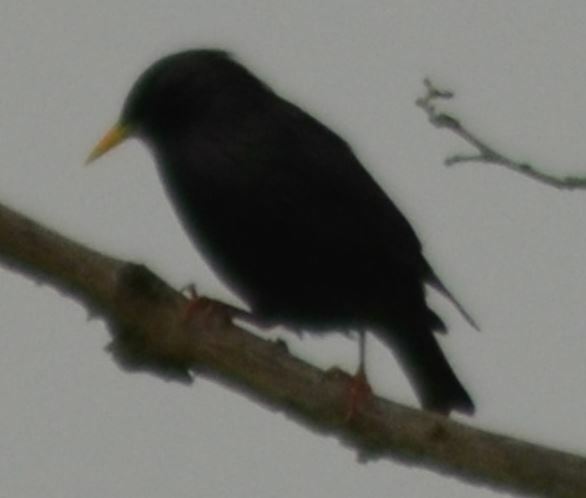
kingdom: Animalia
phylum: Chordata
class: Aves
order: Passeriformes
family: Sturnidae
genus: Sturnus
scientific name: Sturnus unicolor
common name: Spotless starling
